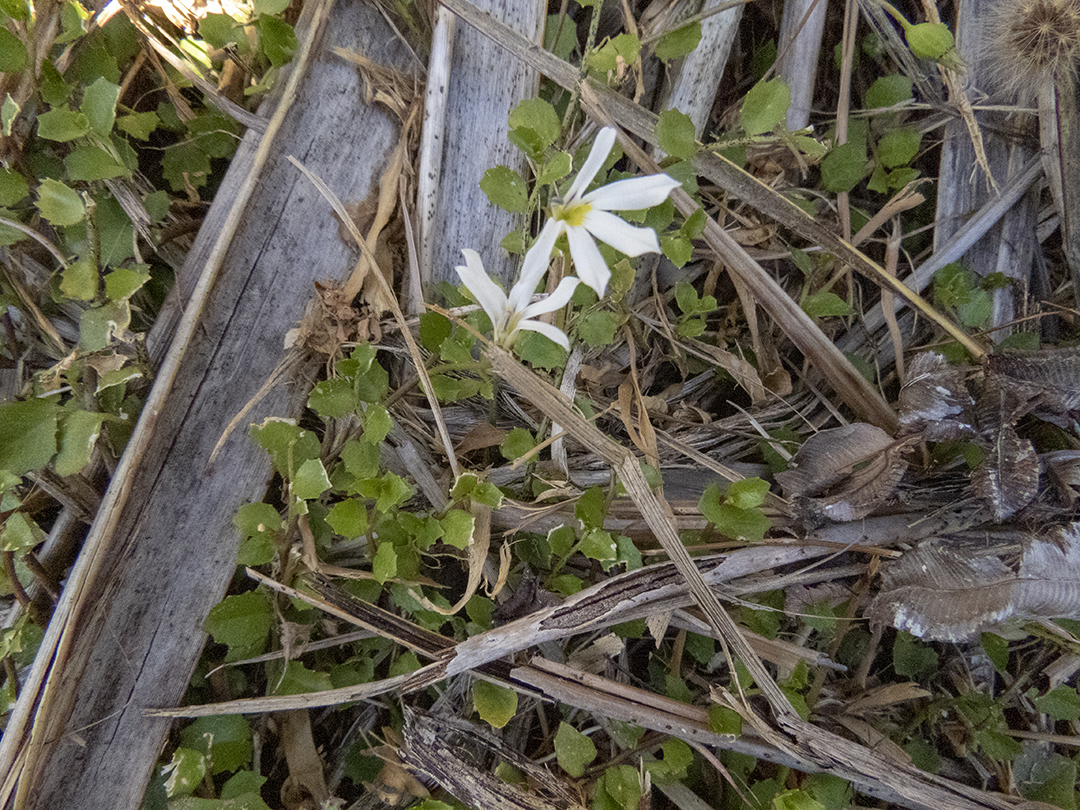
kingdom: Plantae
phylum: Tracheophyta
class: Magnoliopsida
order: Asterales
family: Campanulaceae
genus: Lobelia
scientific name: Lobelia angulata
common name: Lawn lobelia
